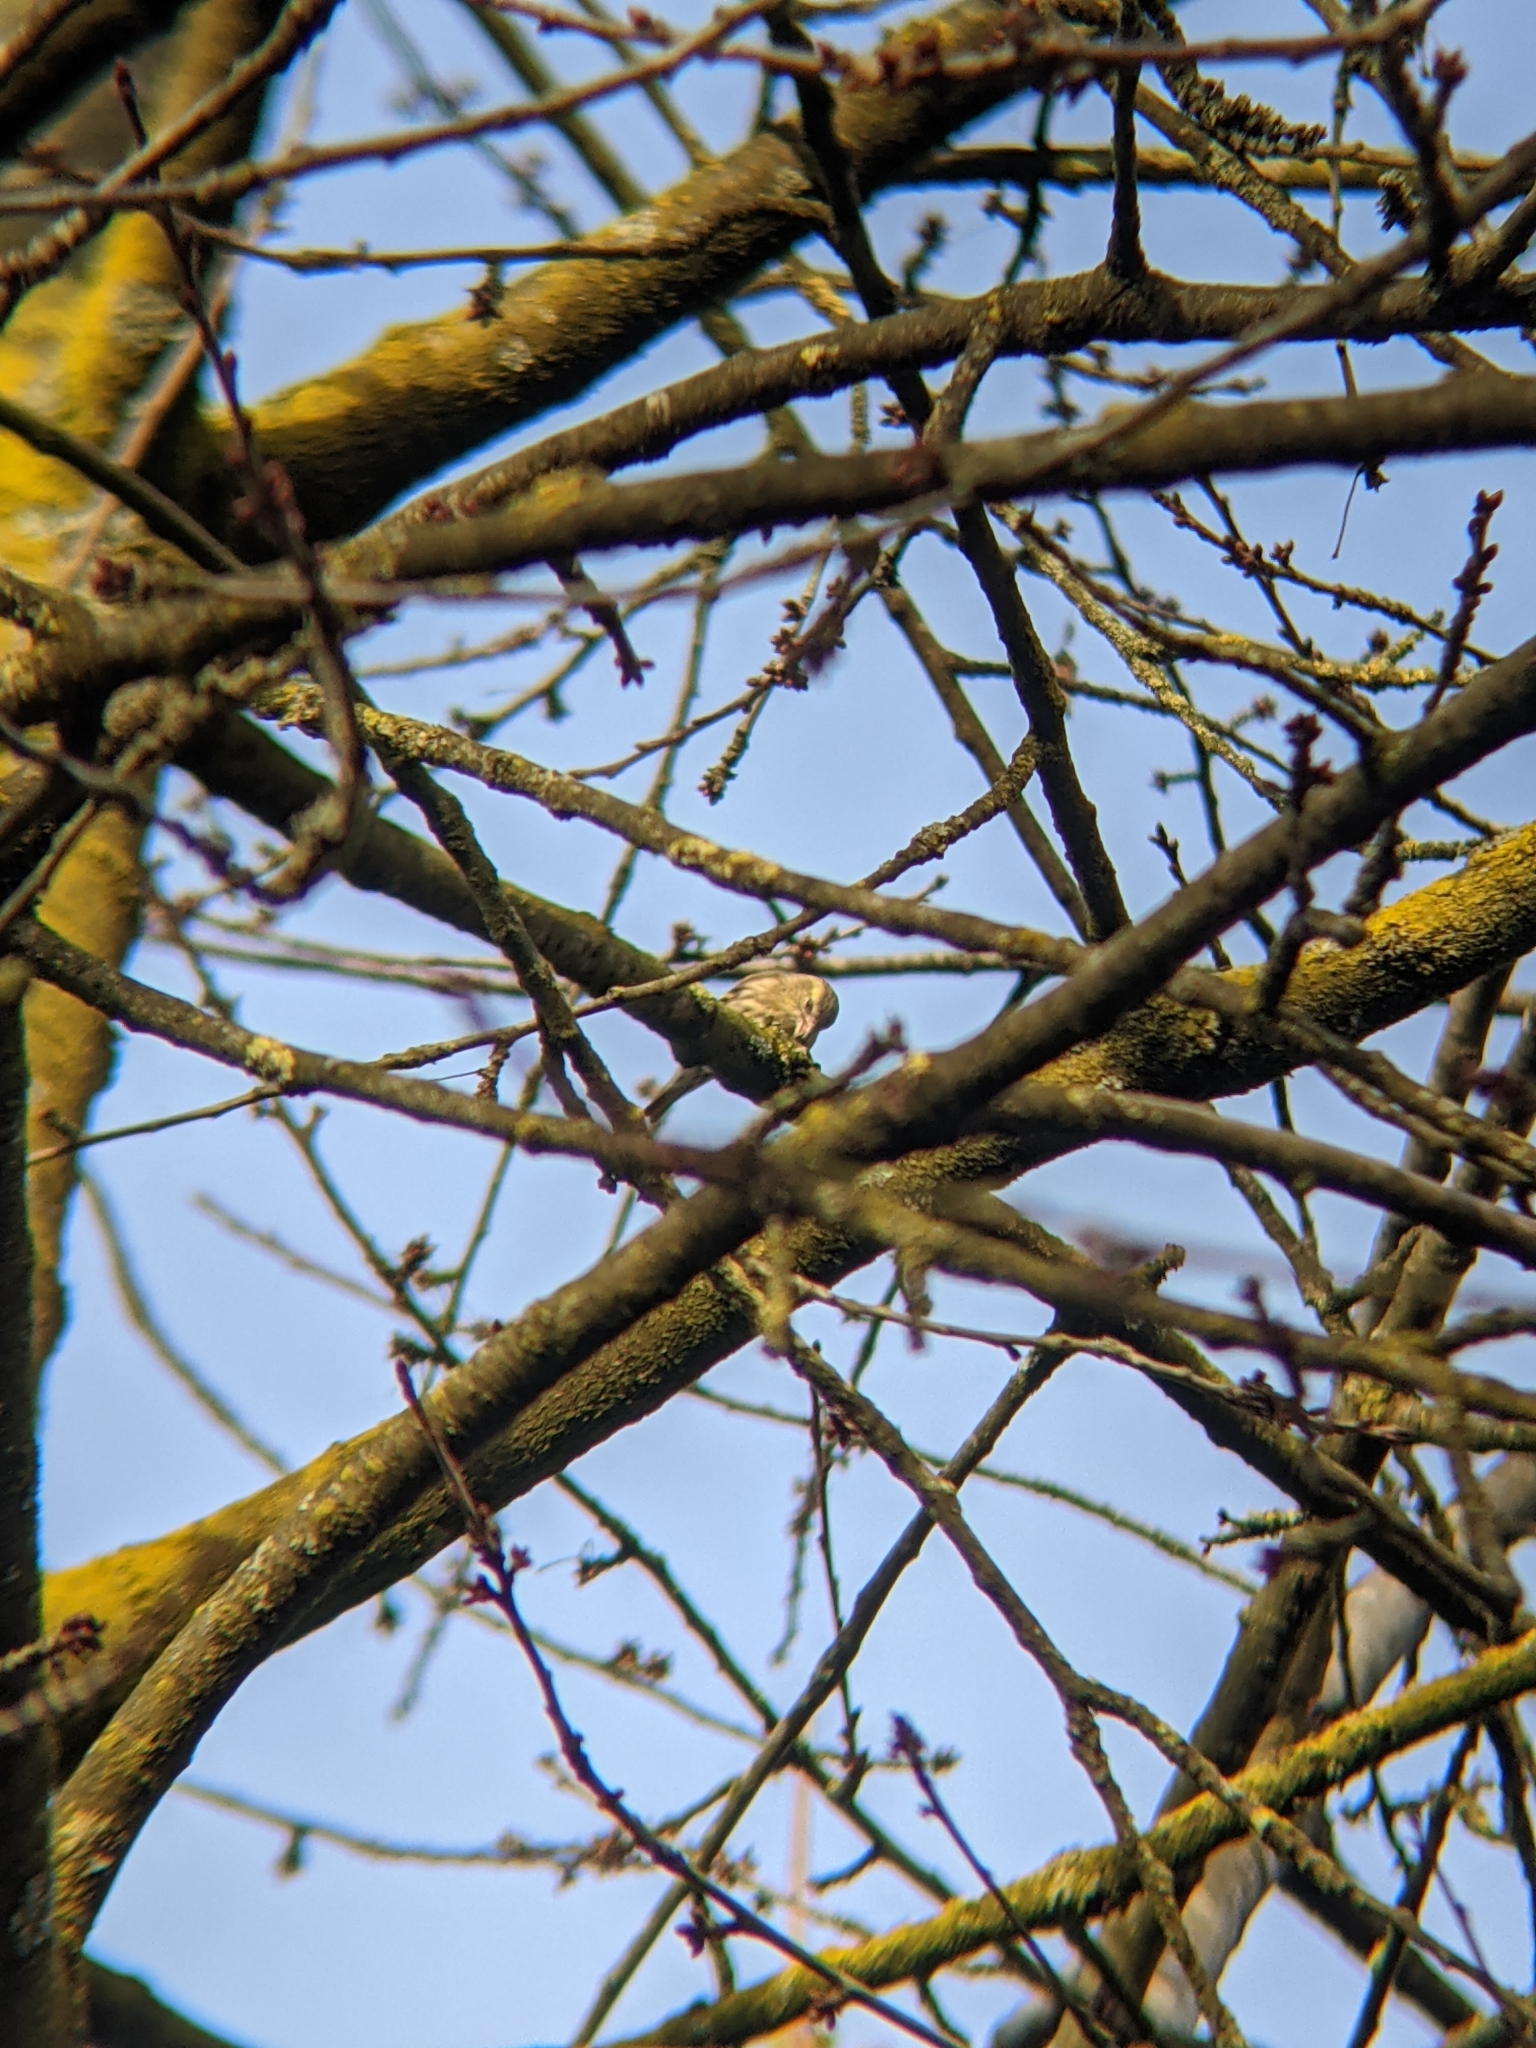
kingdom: Animalia
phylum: Chordata
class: Aves
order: Passeriformes
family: Fringillidae
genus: Spinus
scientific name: Spinus spinus
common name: Eurasian siskin
